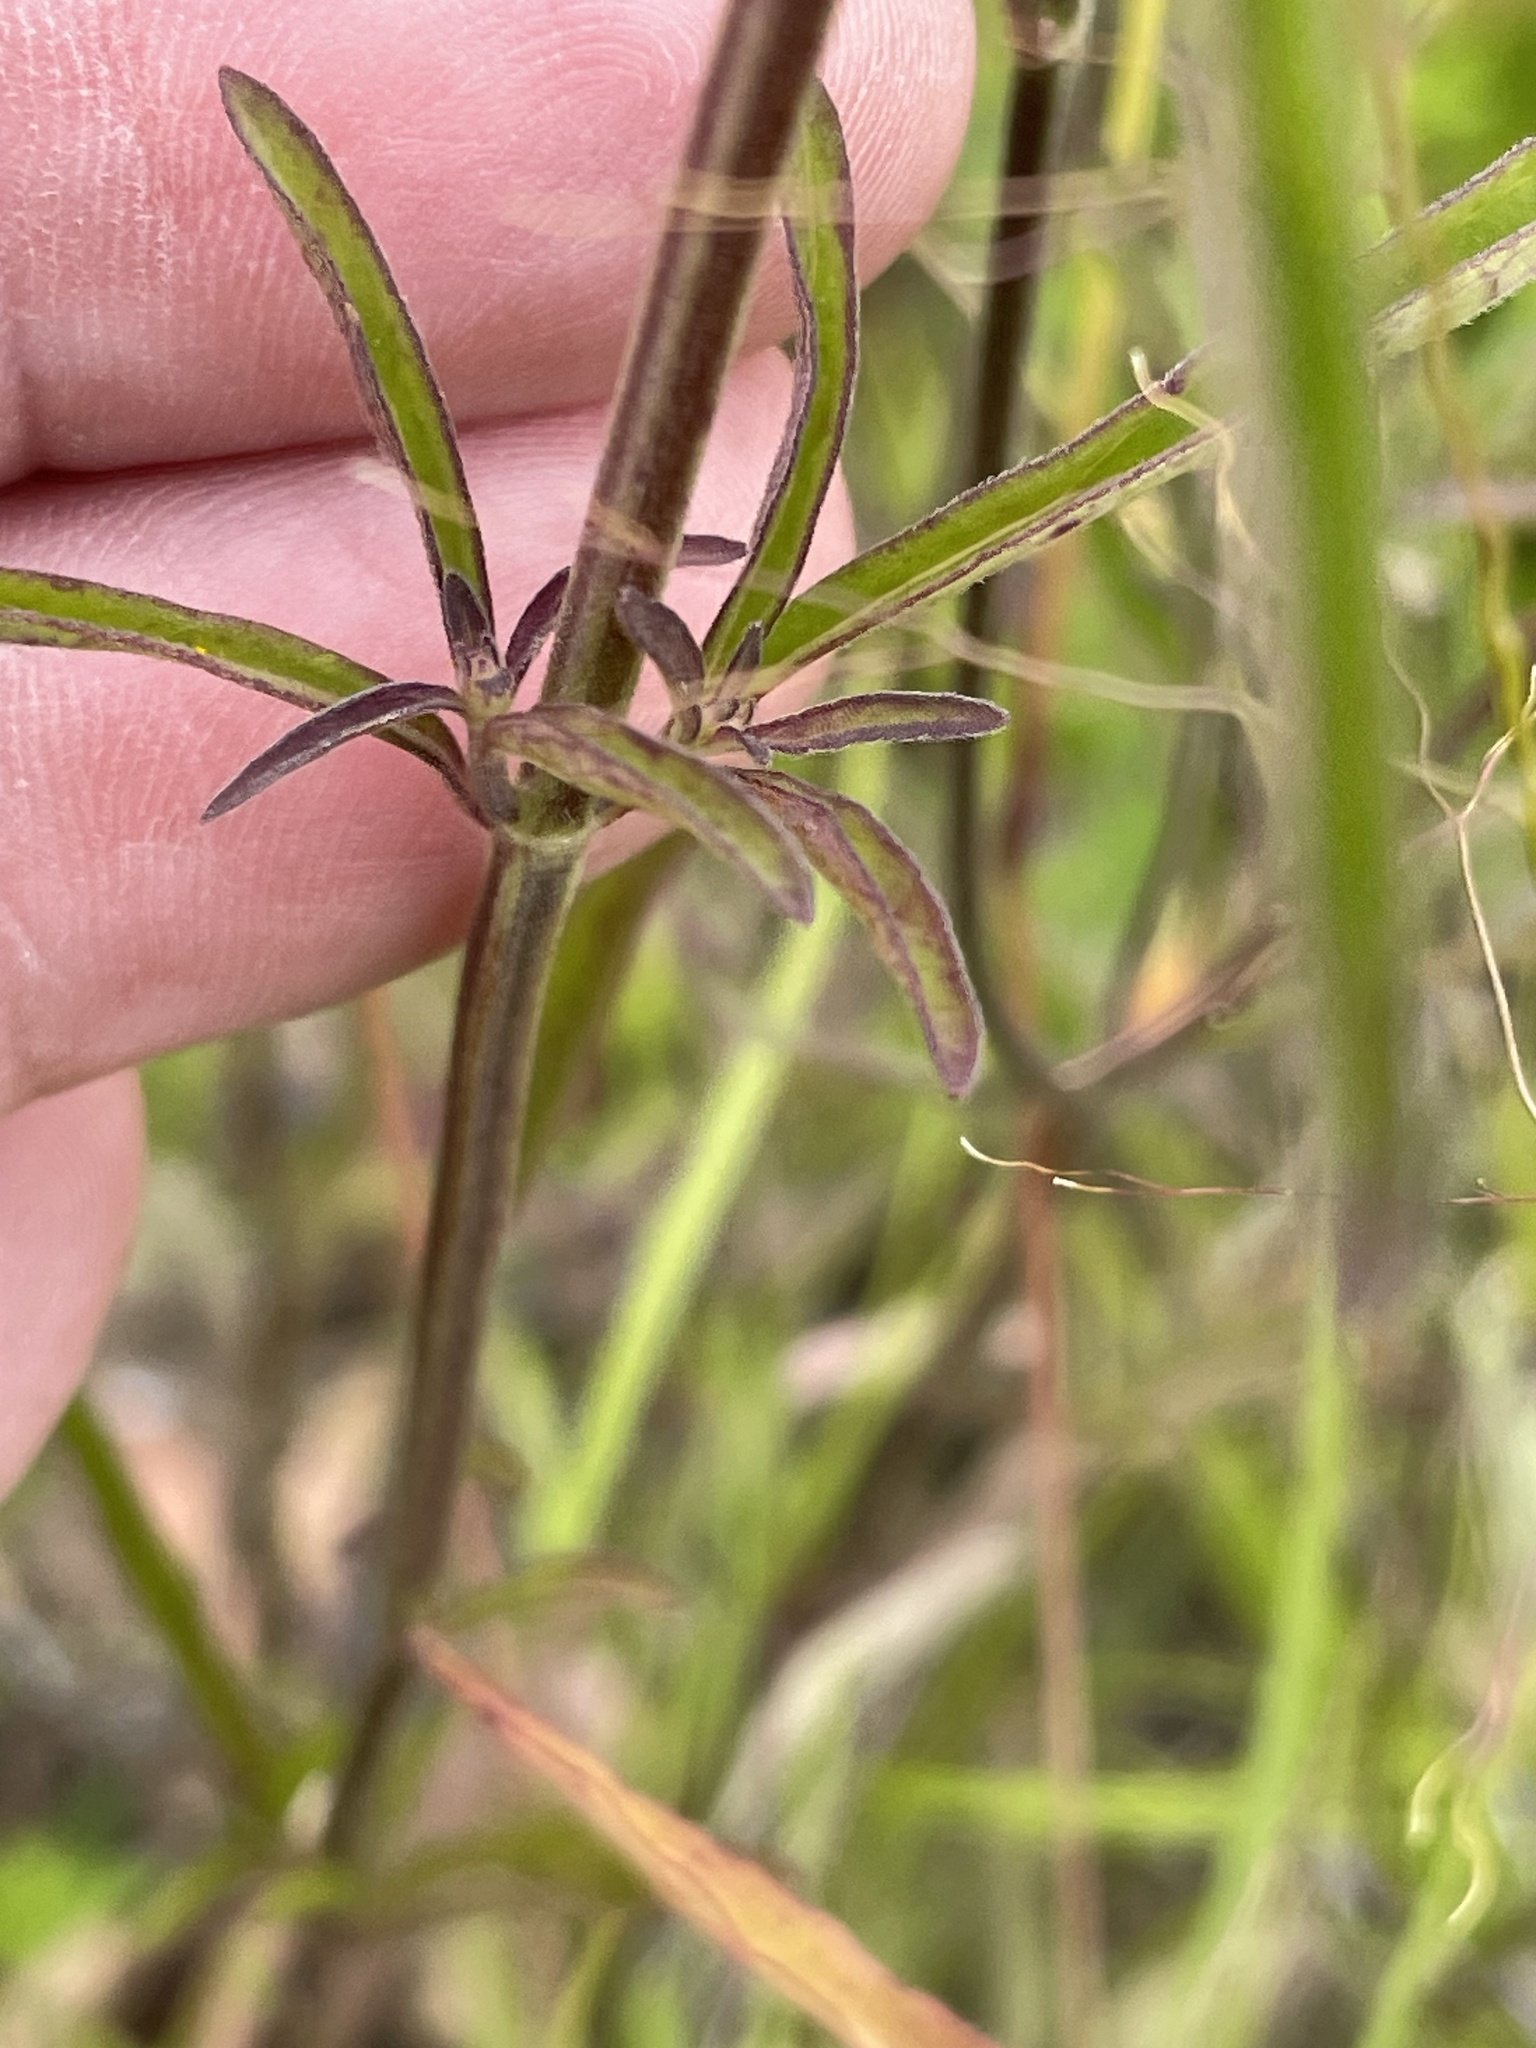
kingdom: Plantae
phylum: Tracheophyta
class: Magnoliopsida
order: Lamiales
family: Lamiaceae
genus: Scutellaria
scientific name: Scutellaria integrifolia
